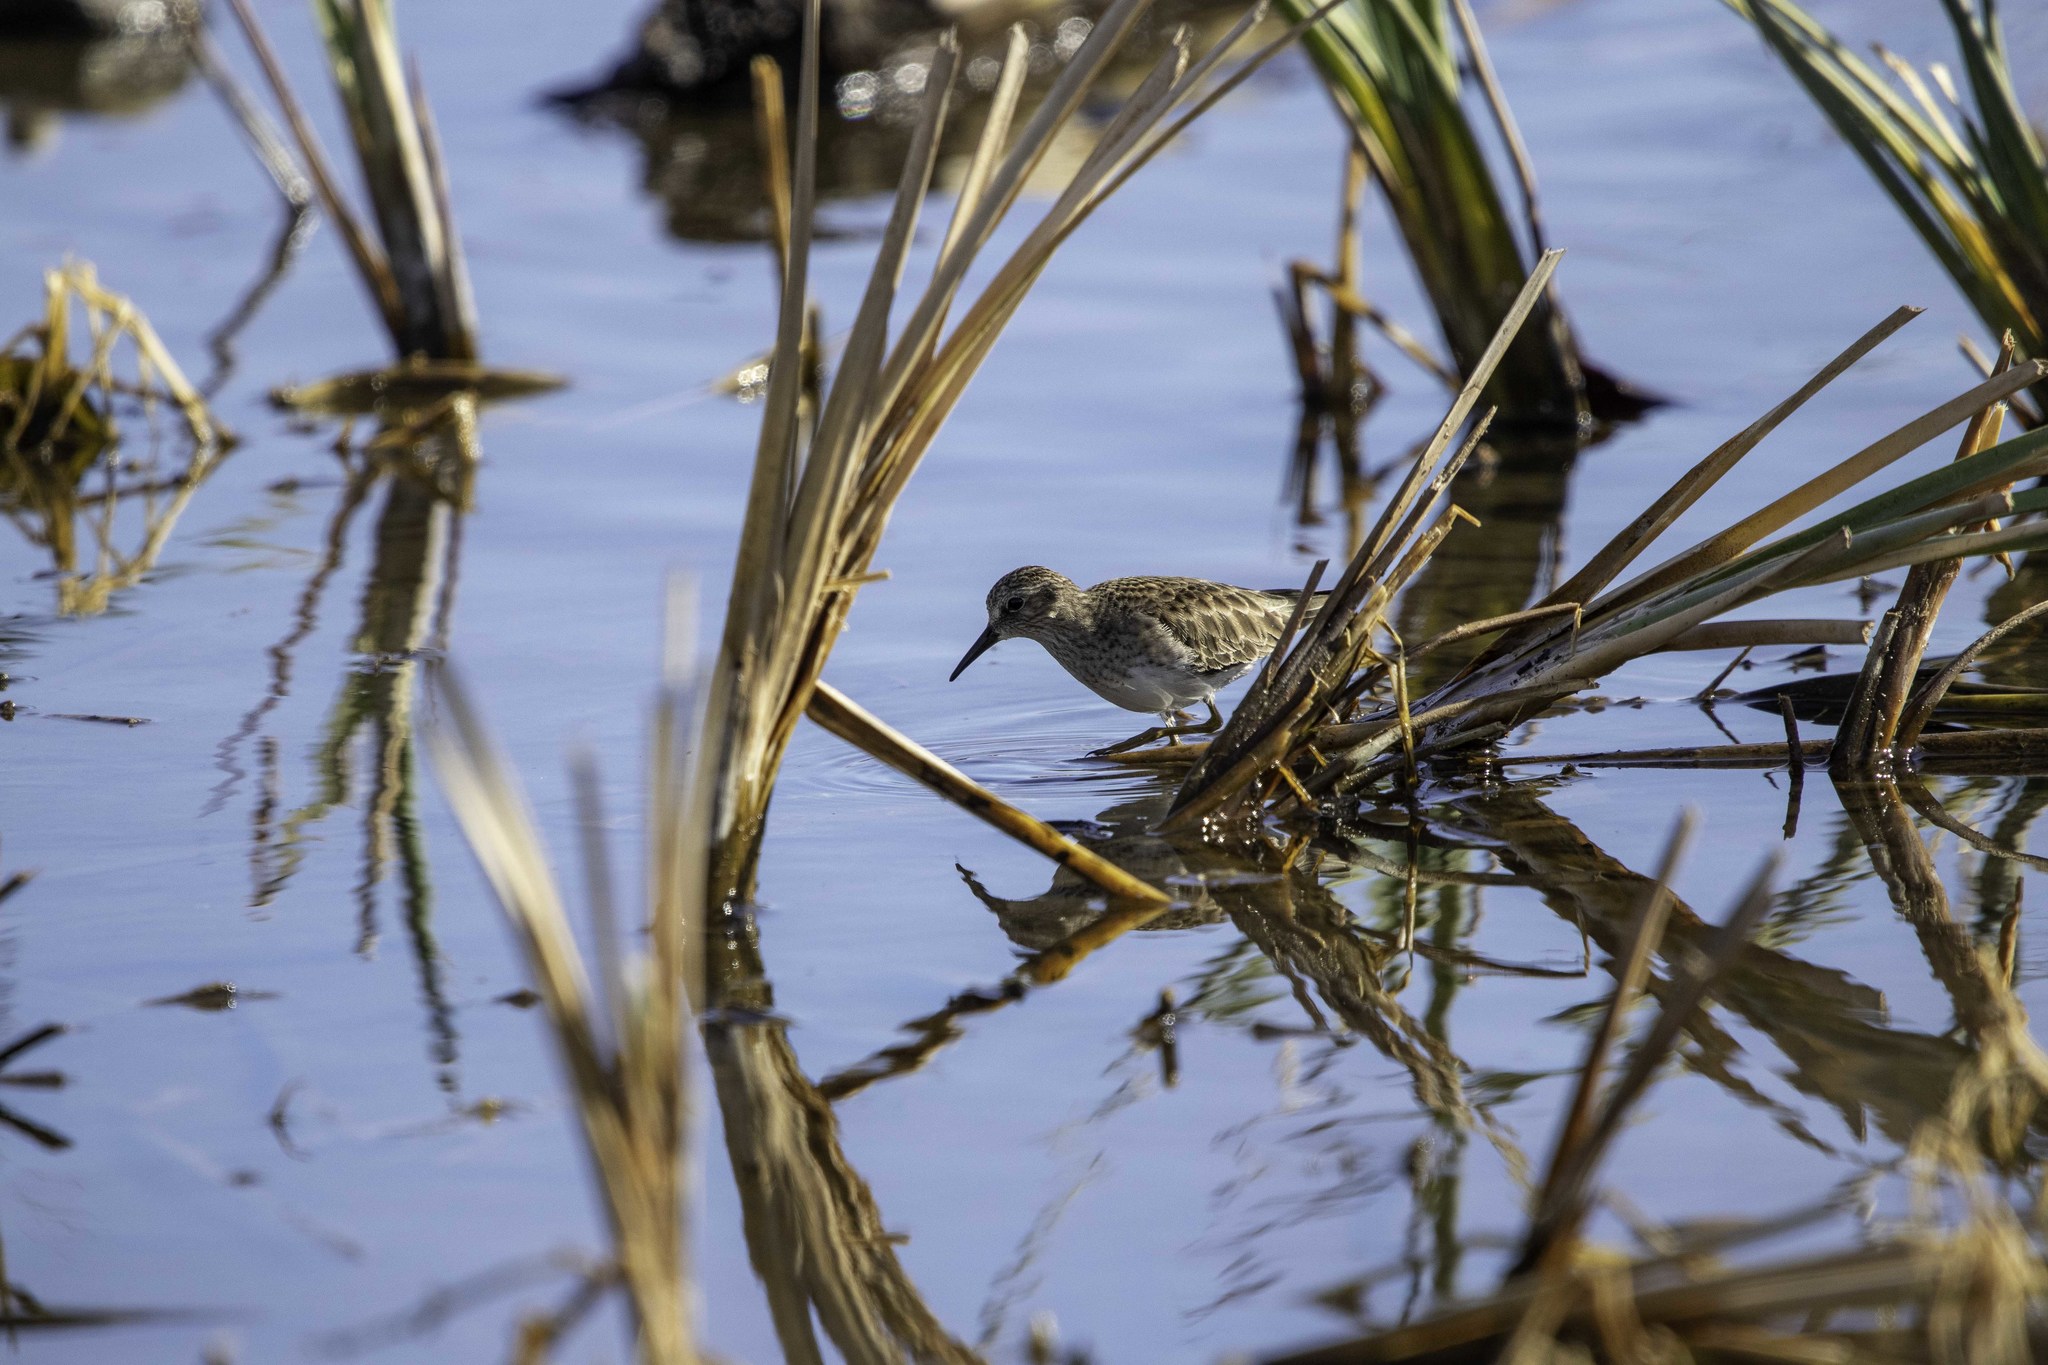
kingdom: Animalia
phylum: Chordata
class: Aves
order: Charadriiformes
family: Scolopacidae
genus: Calidris
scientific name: Calidris minutilla
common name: Least sandpiper
